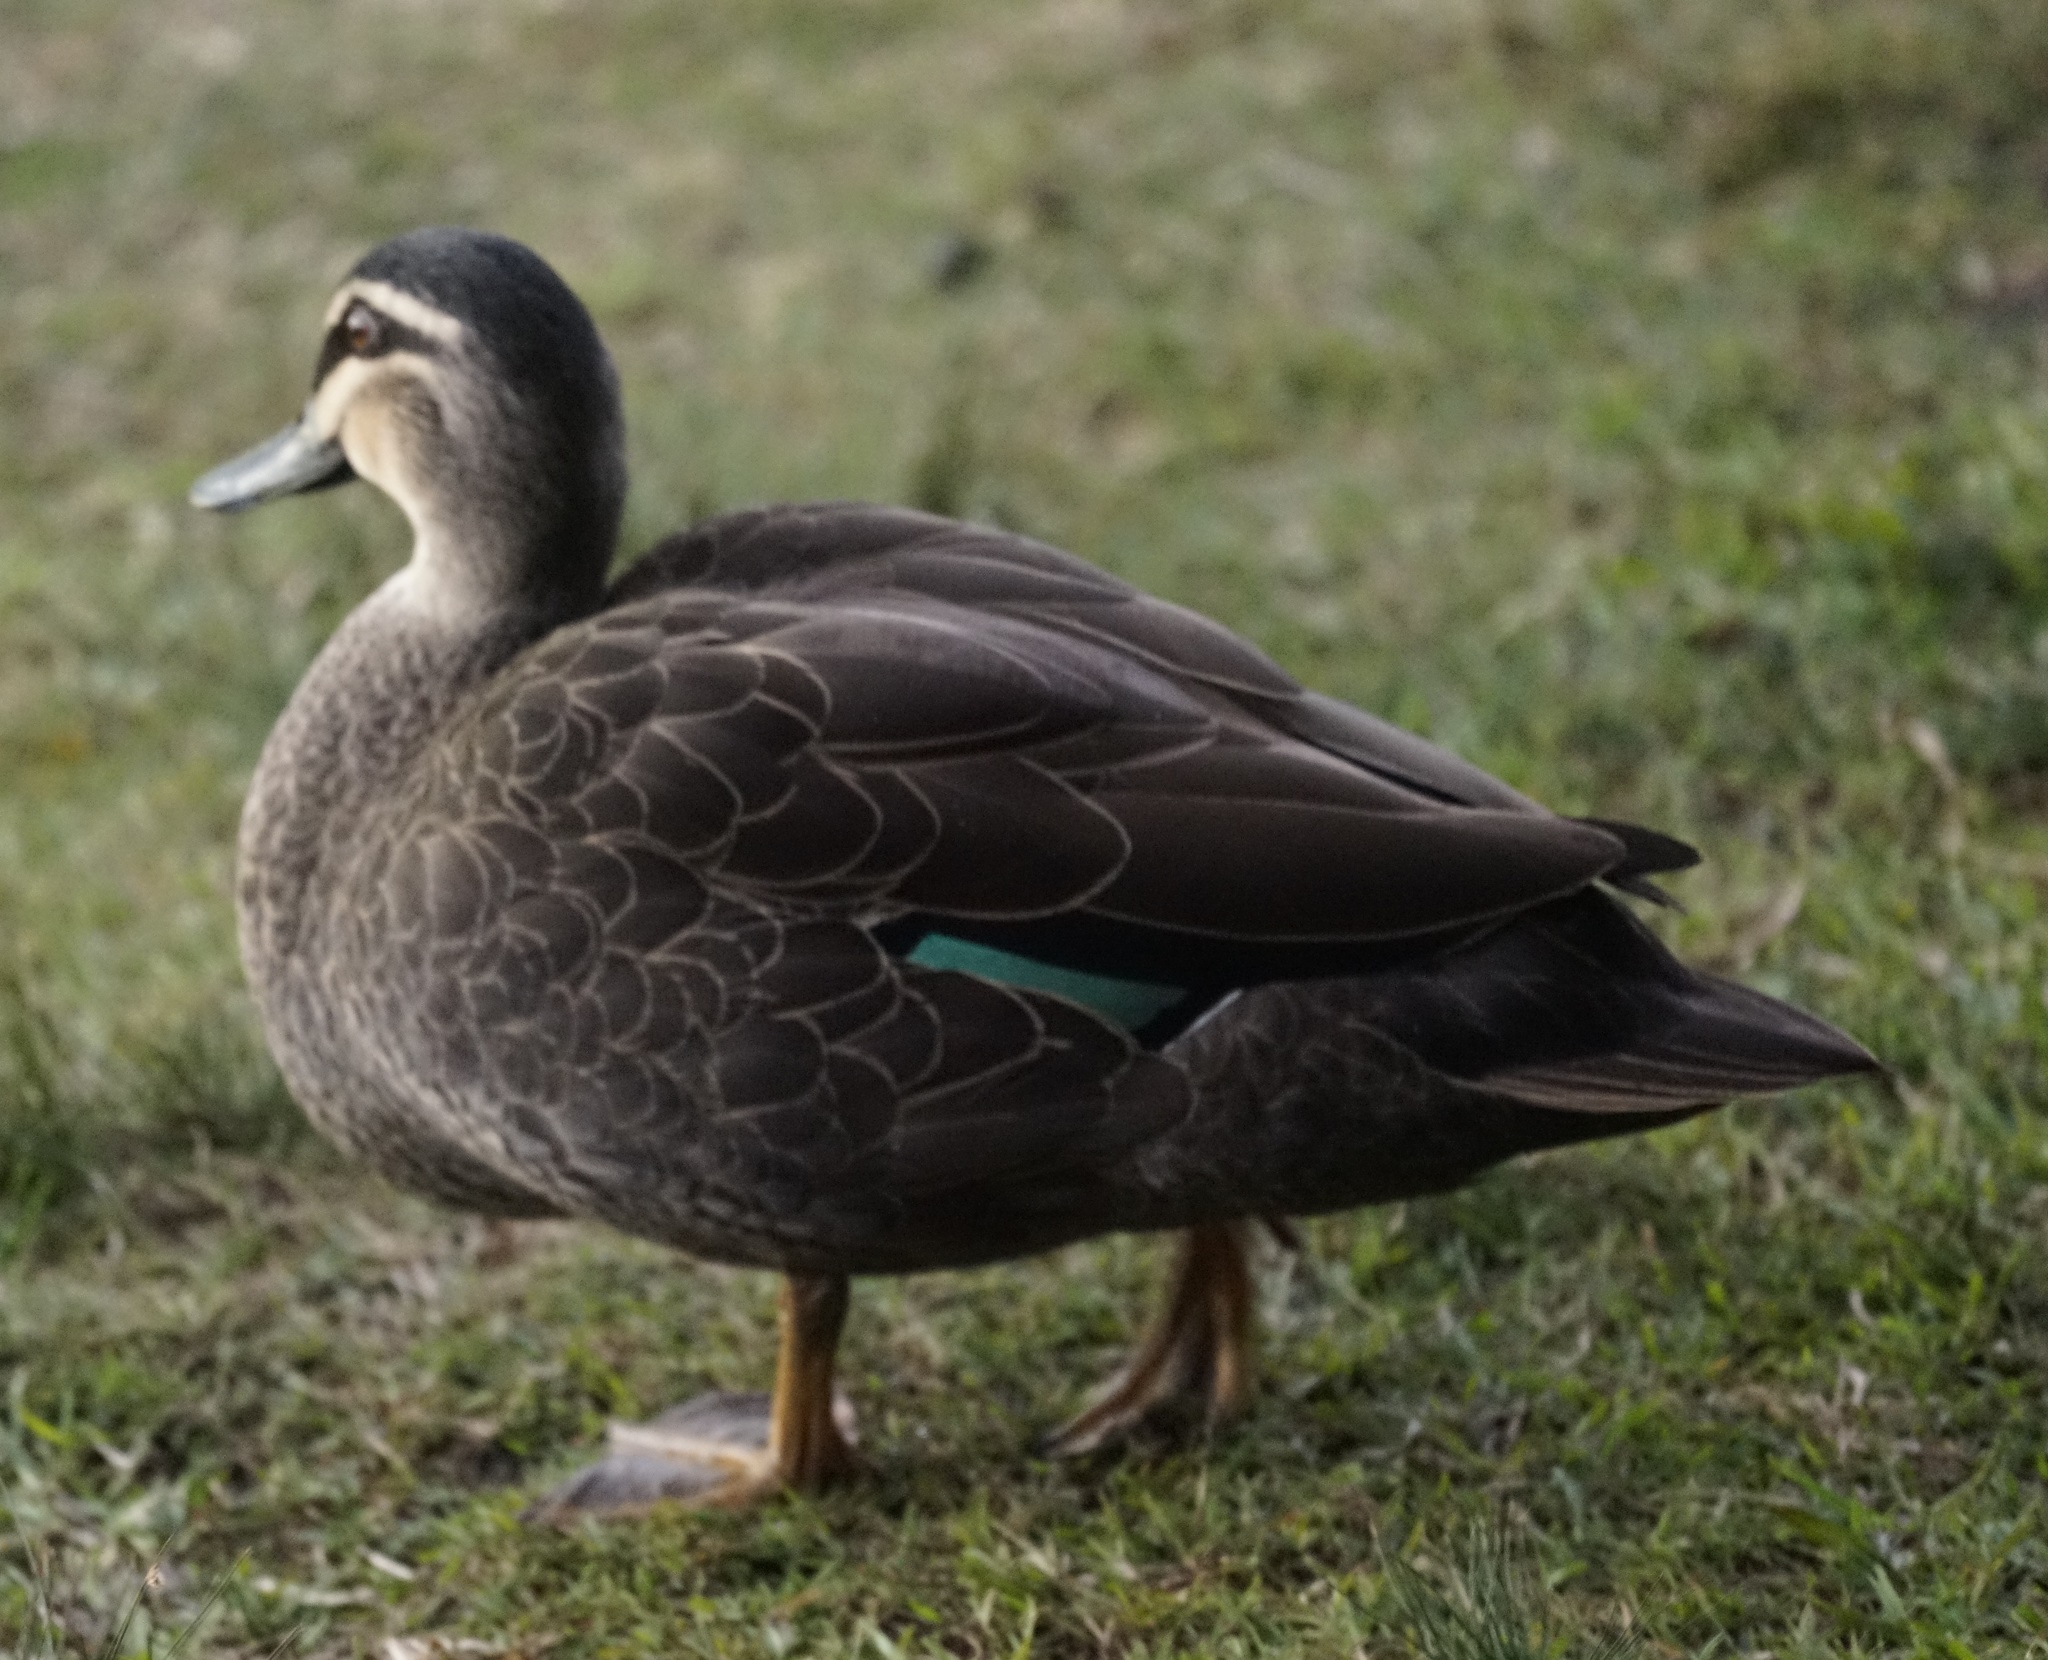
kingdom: Animalia
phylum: Chordata
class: Aves
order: Anseriformes
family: Anatidae
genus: Anas
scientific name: Anas superciliosa
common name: Pacific black duck
